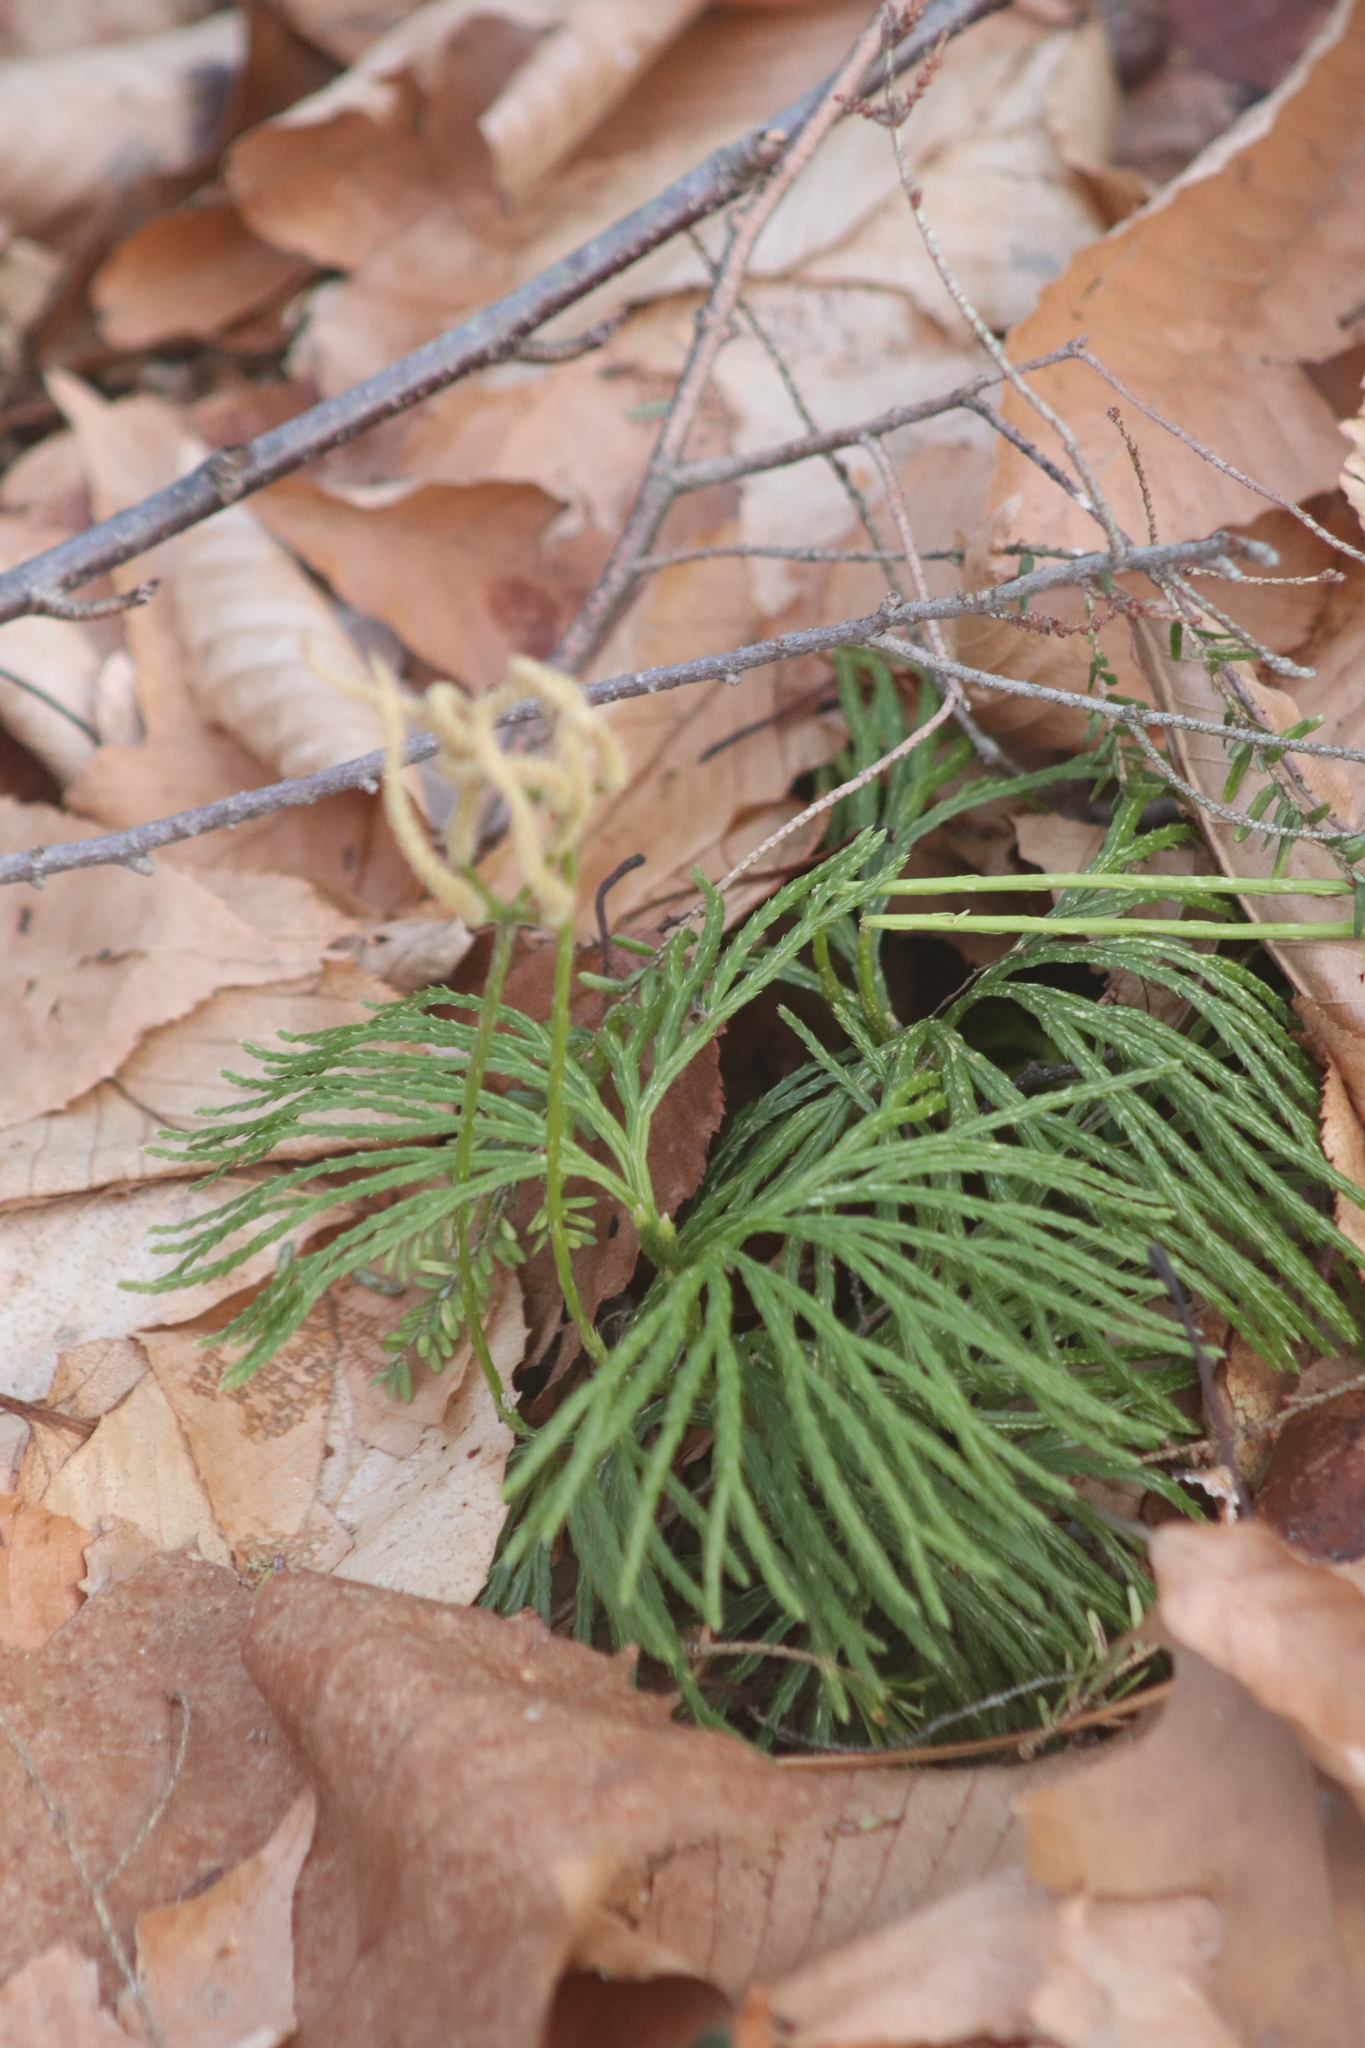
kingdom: Plantae
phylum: Tracheophyta
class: Lycopodiopsida
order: Lycopodiales
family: Lycopodiaceae
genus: Diphasiastrum
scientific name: Diphasiastrum digitatum
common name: Southern running-pine
